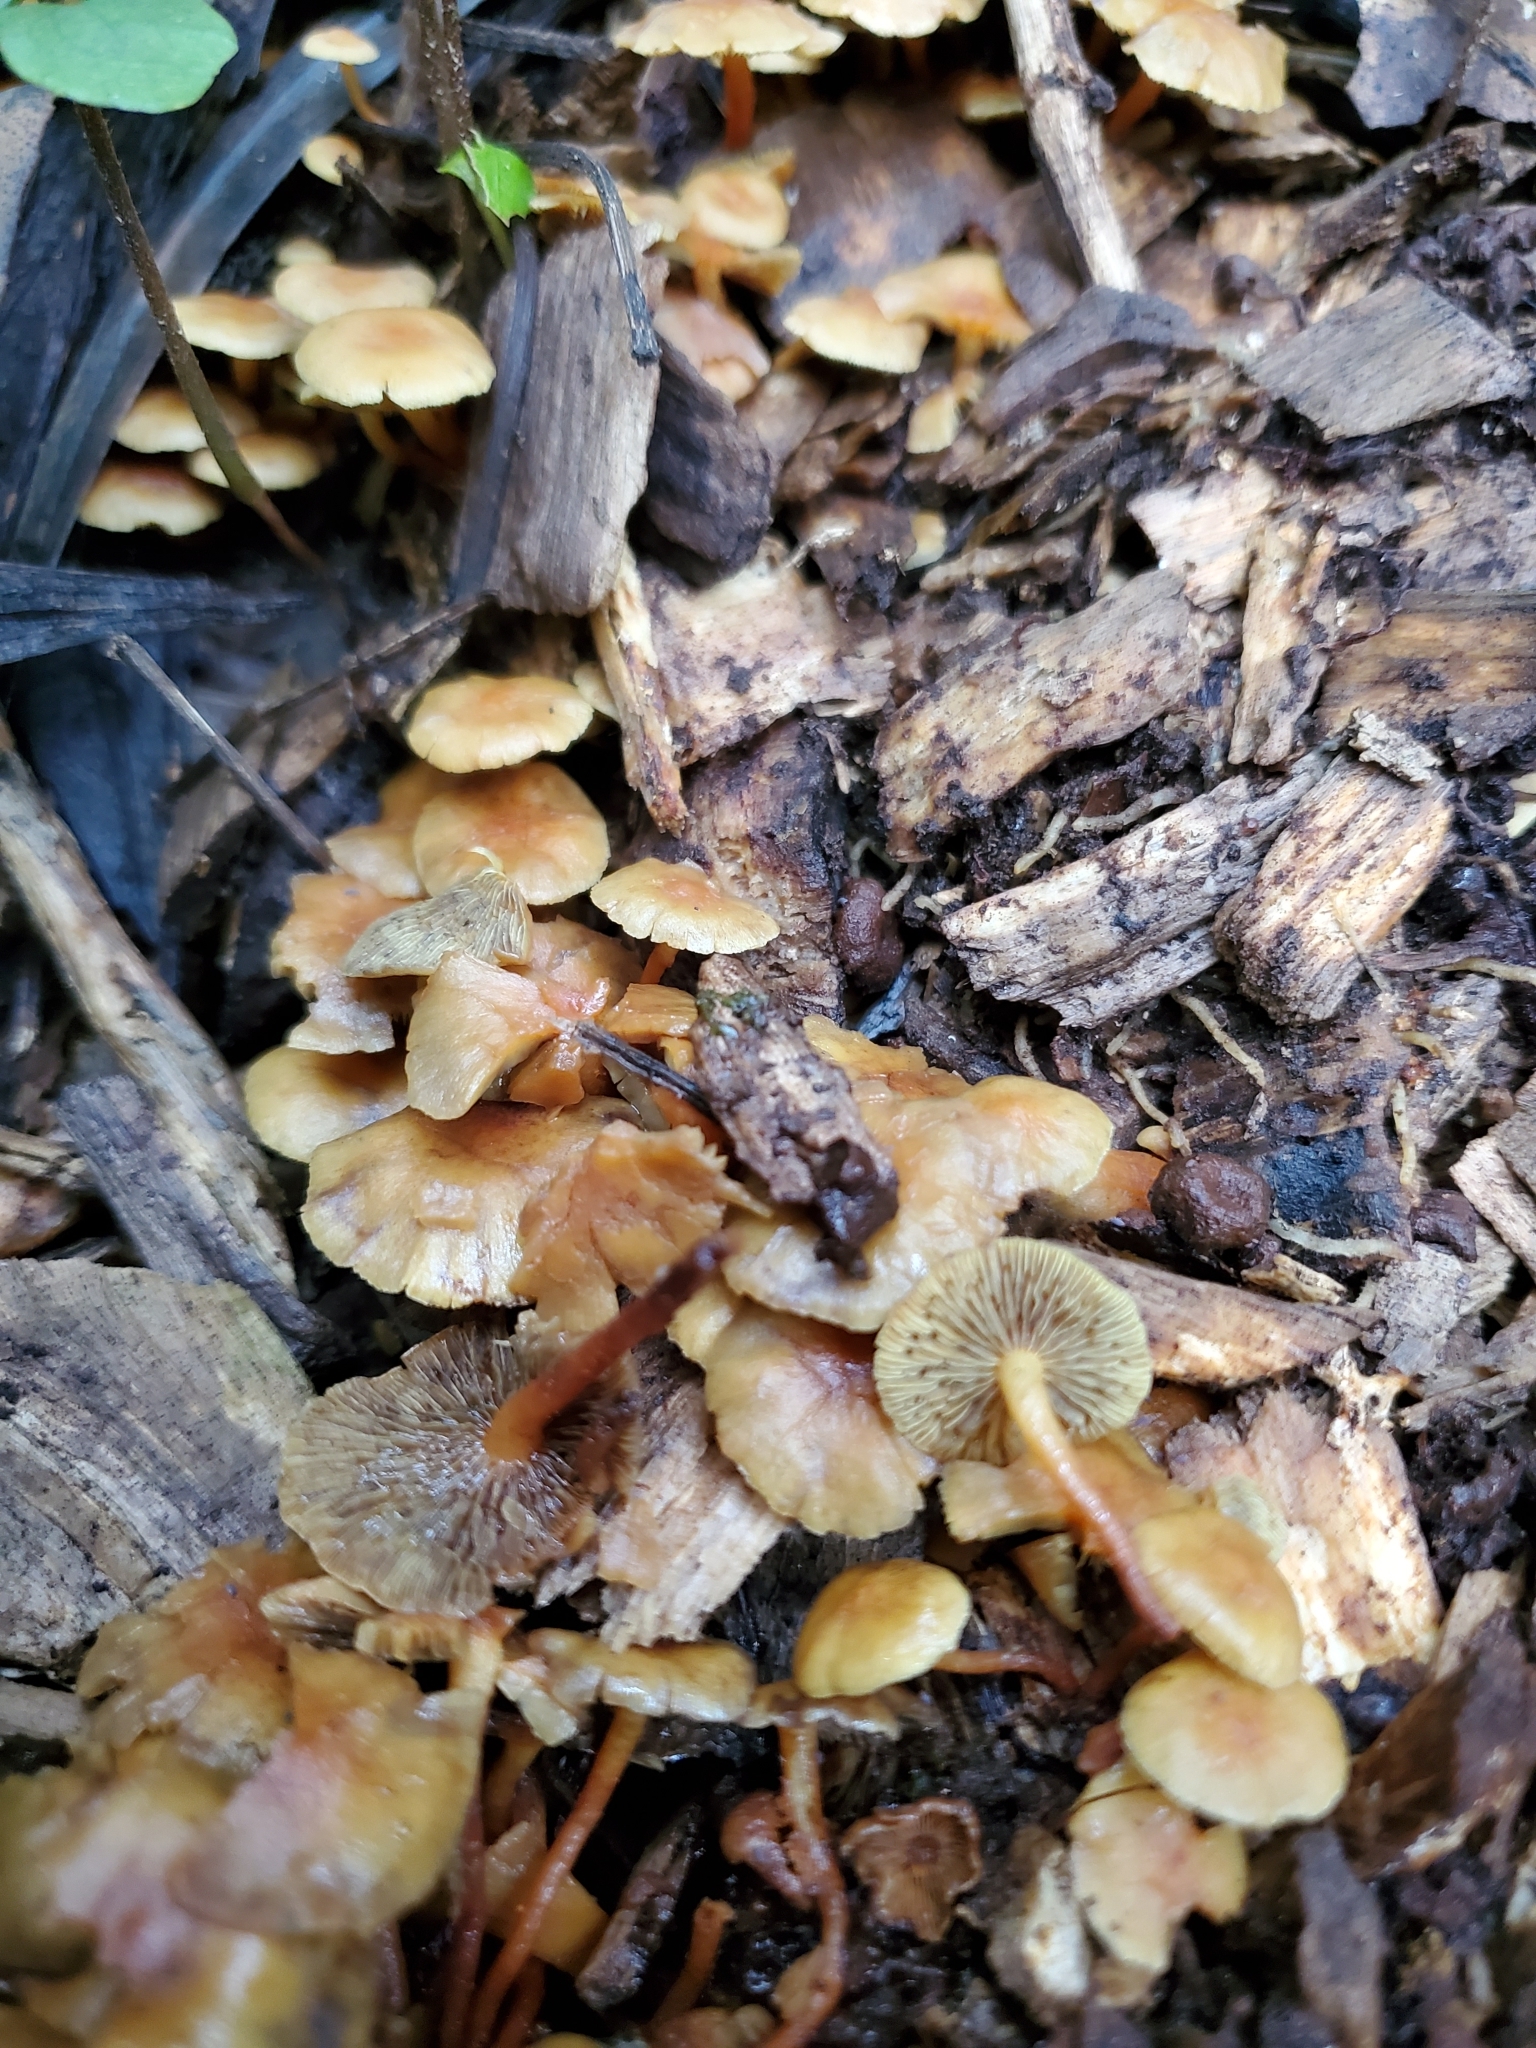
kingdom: Fungi
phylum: Basidiomycota
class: Agaricomycetes
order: Agaricales
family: Strophariaceae
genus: Hypholoma
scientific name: Hypholoma acutum
